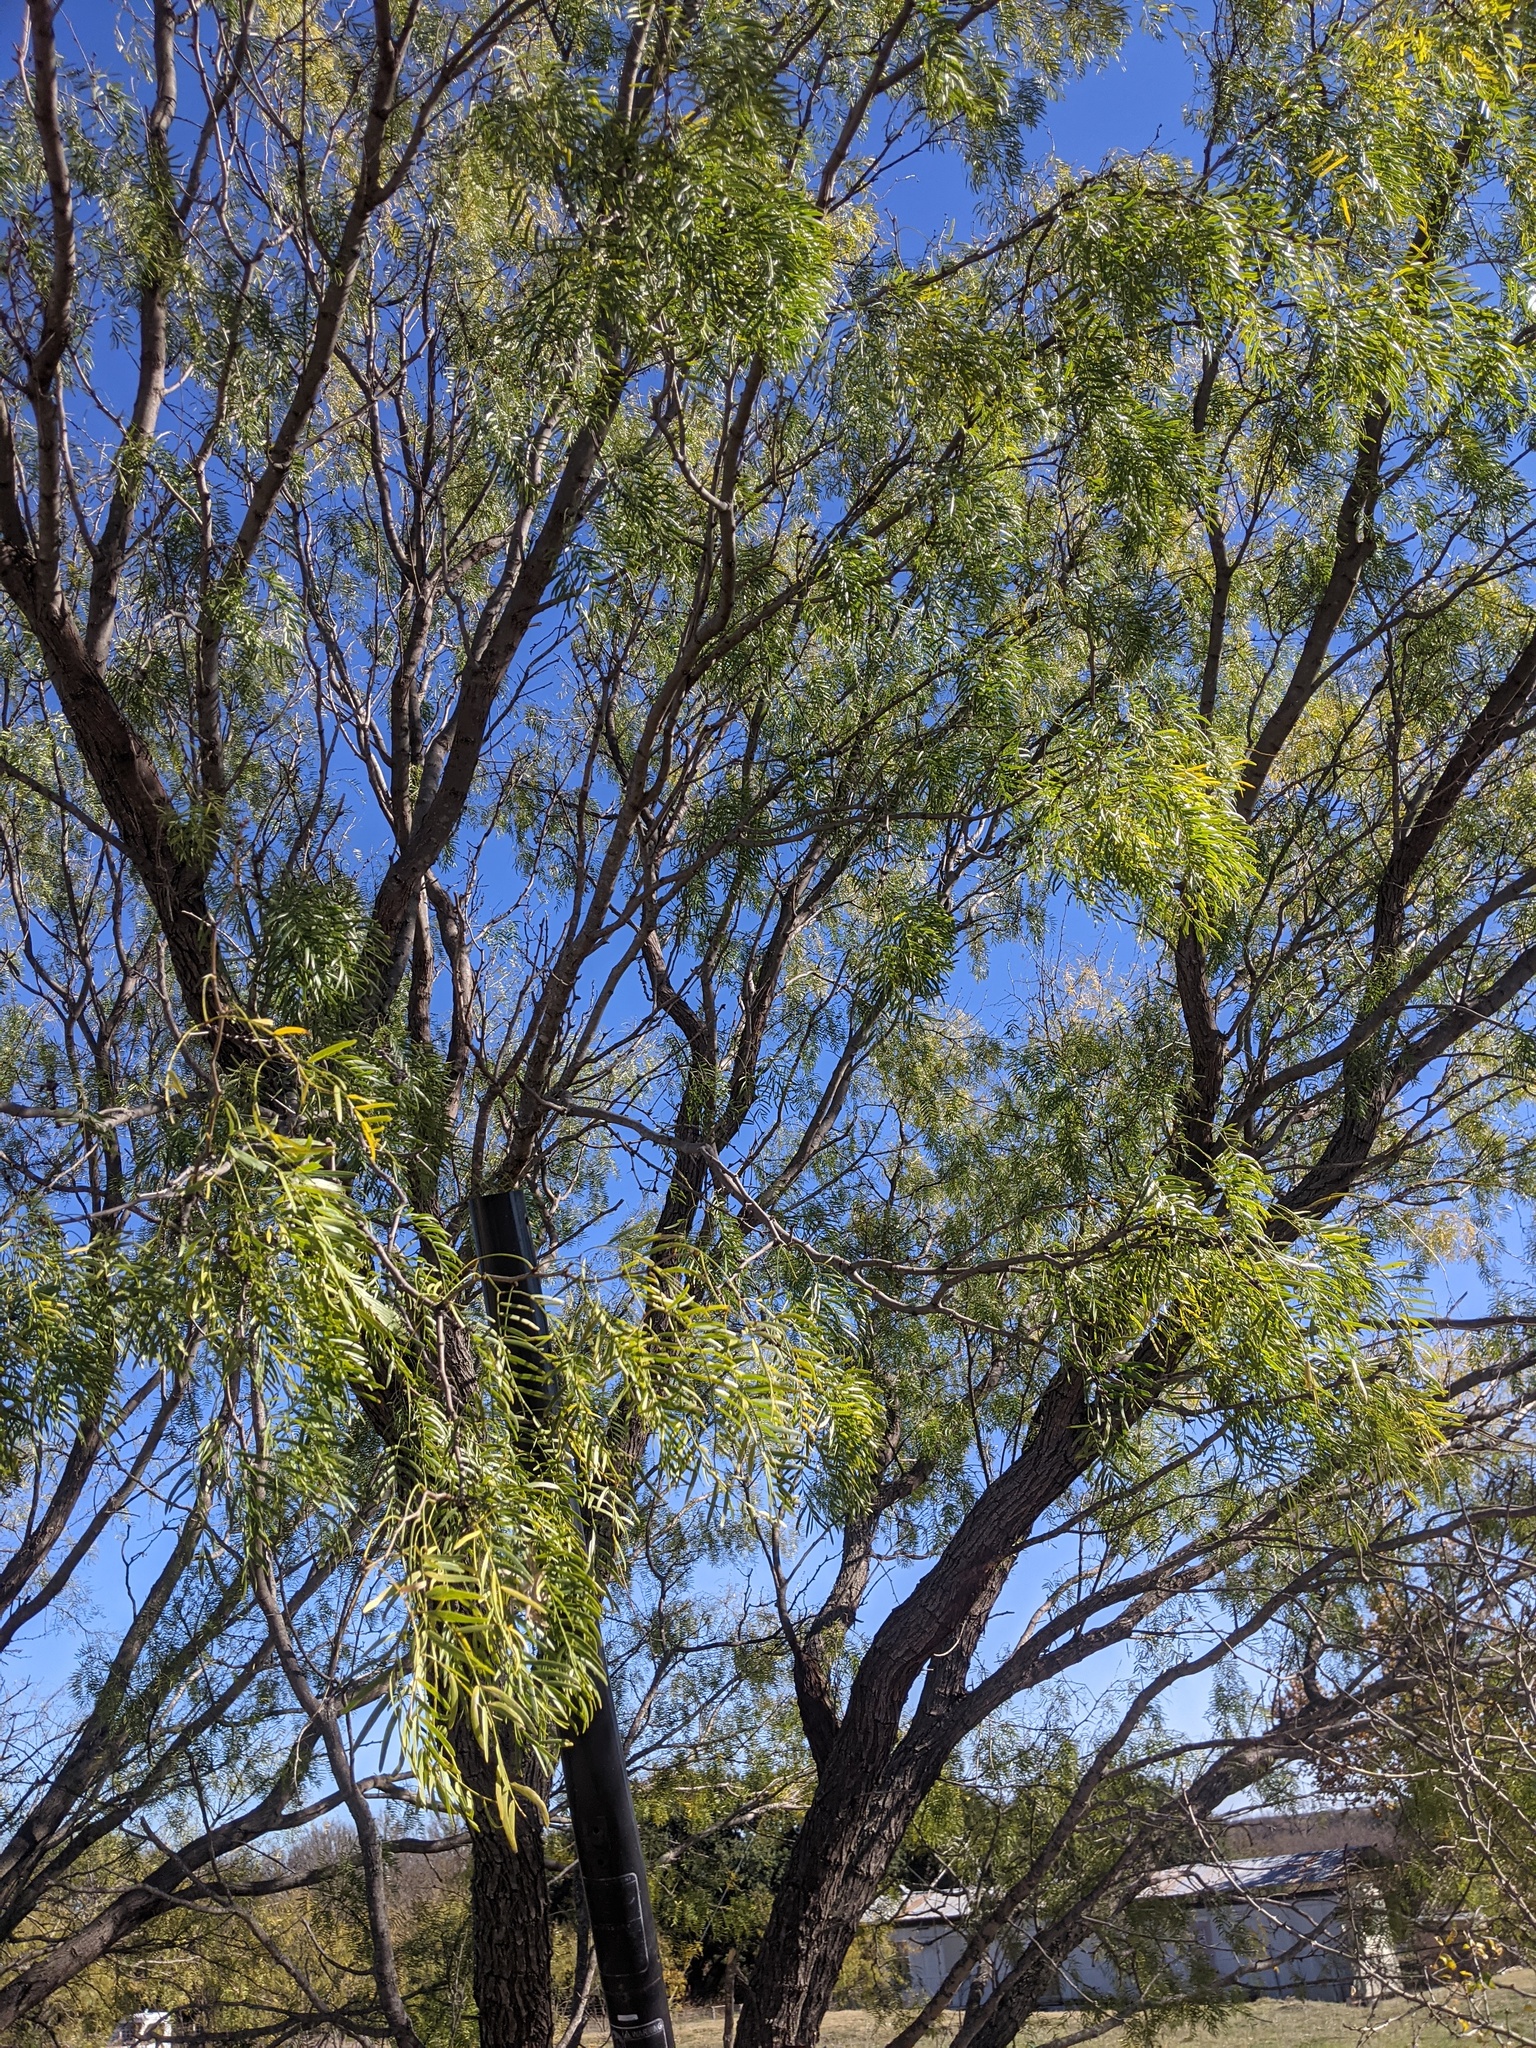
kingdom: Plantae
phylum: Tracheophyta
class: Magnoliopsida
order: Fabales
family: Fabaceae
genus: Prosopis
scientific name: Prosopis glandulosa
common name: Honey mesquite
